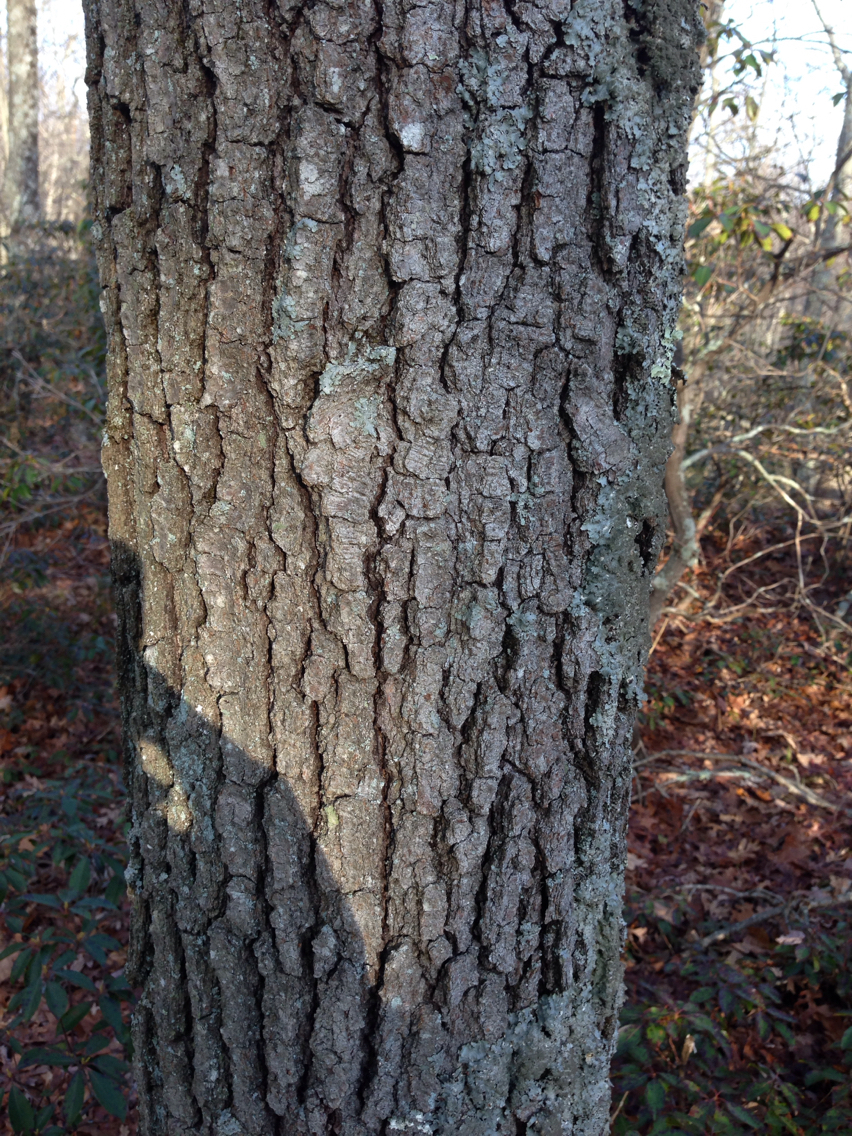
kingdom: Plantae
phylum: Tracheophyta
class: Magnoliopsida
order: Fagales
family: Fagaceae
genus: Quercus
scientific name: Quercus velutina
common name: Black oak
